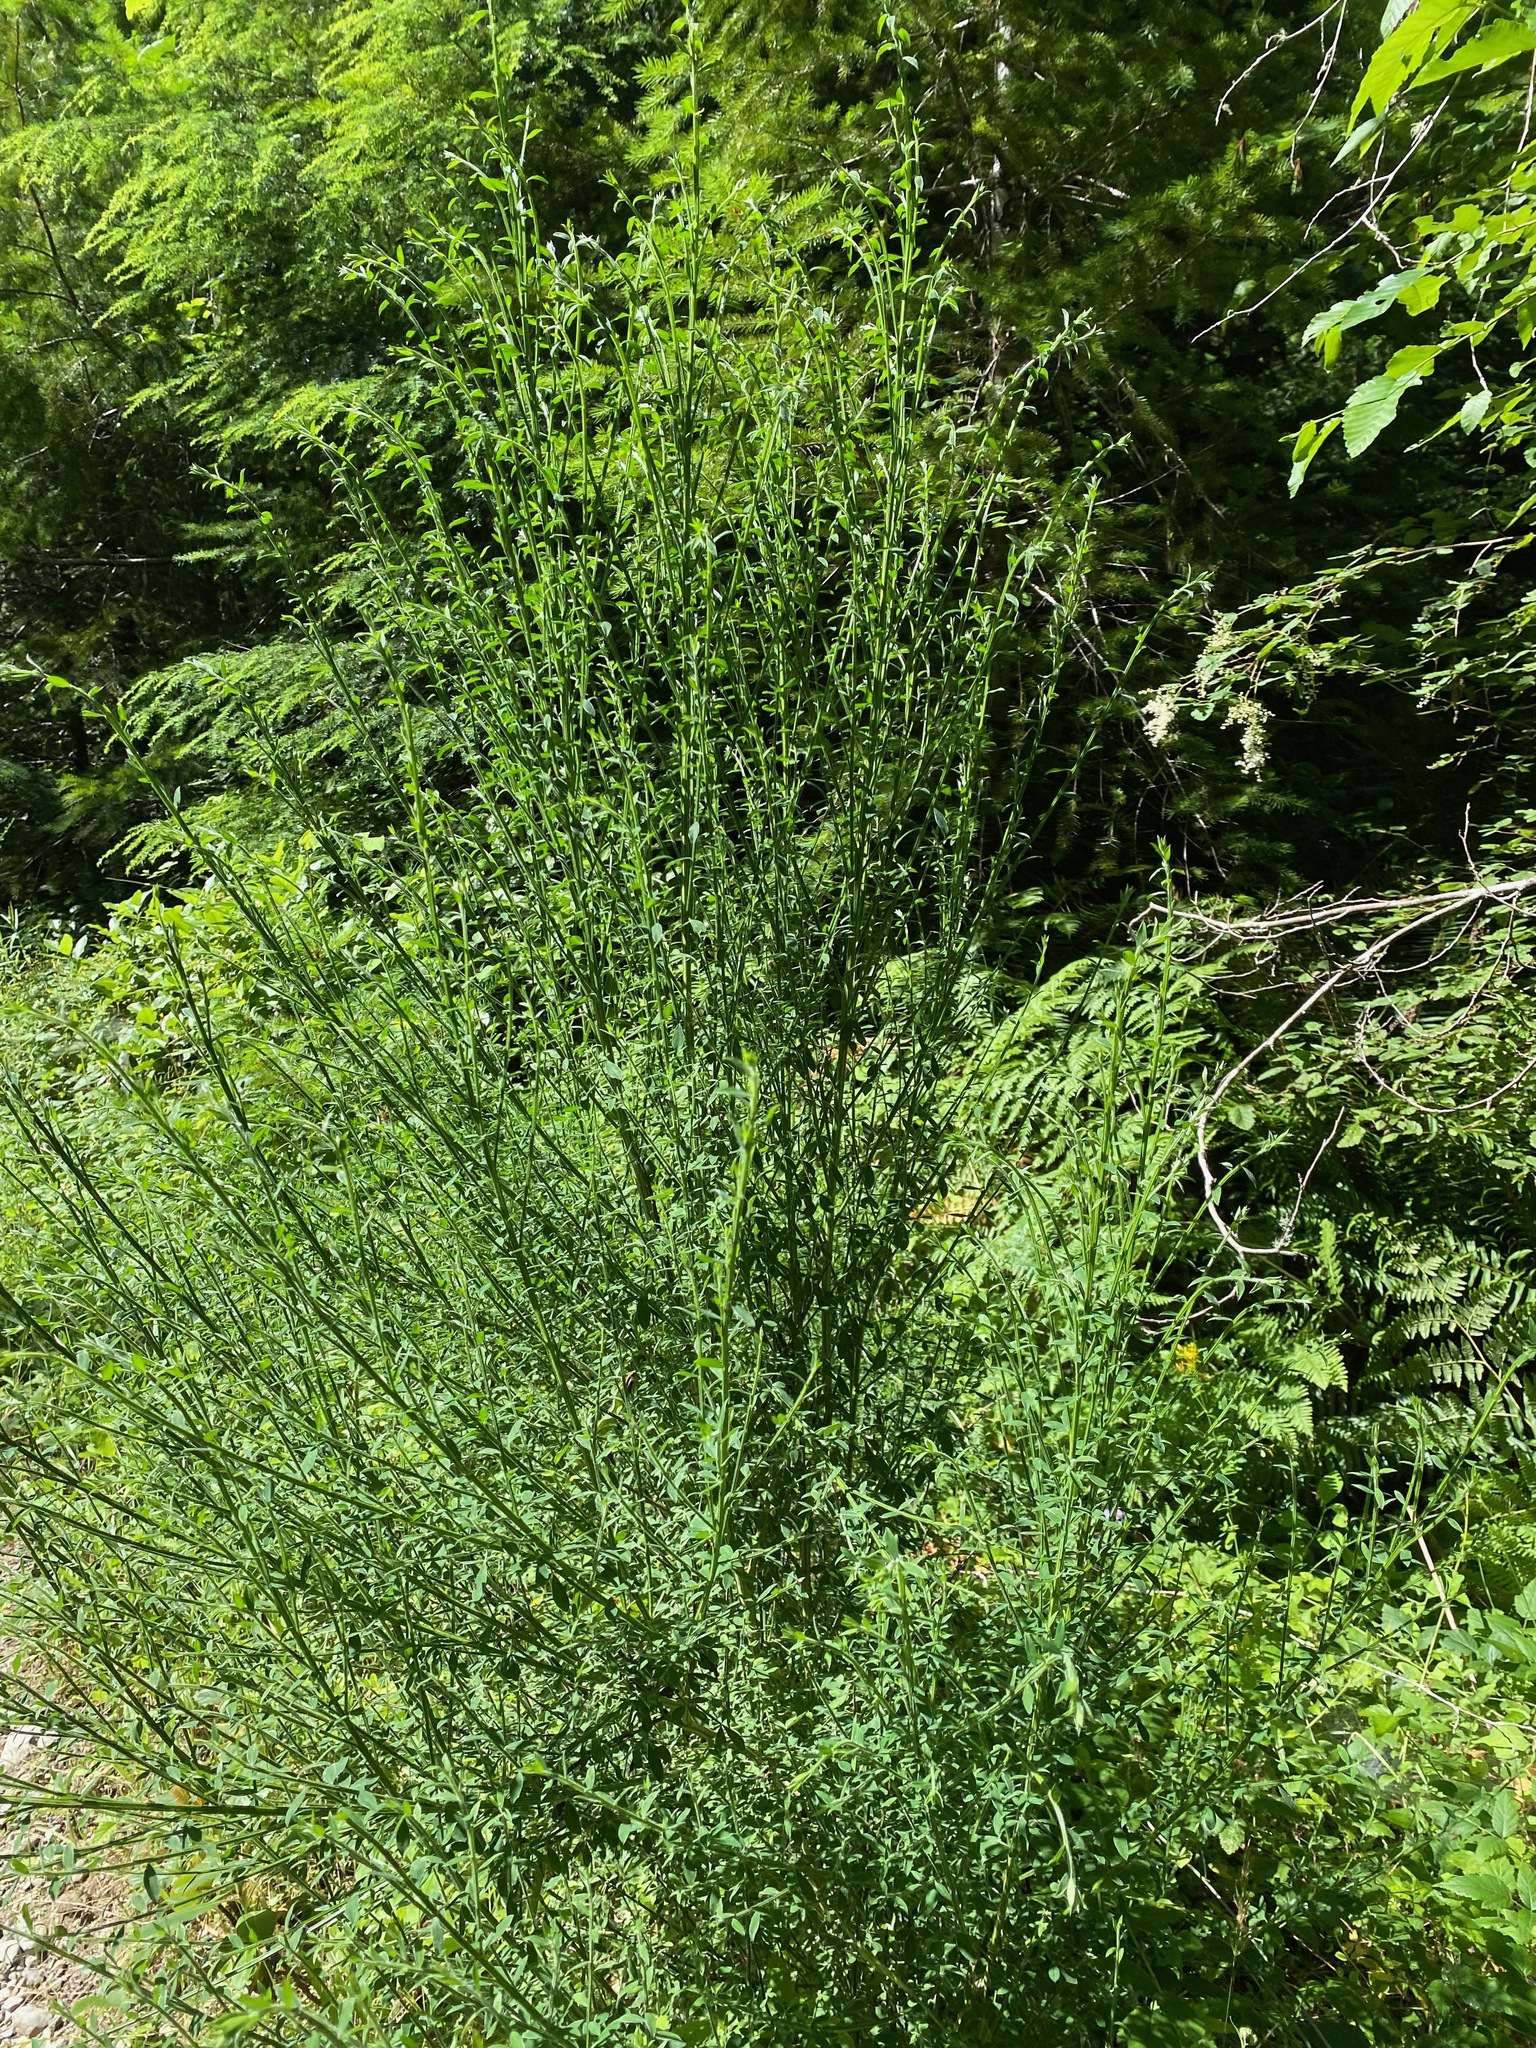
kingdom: Plantae
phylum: Tracheophyta
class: Magnoliopsida
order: Fabales
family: Fabaceae
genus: Cytisus
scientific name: Cytisus scoparius
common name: Scotch broom
